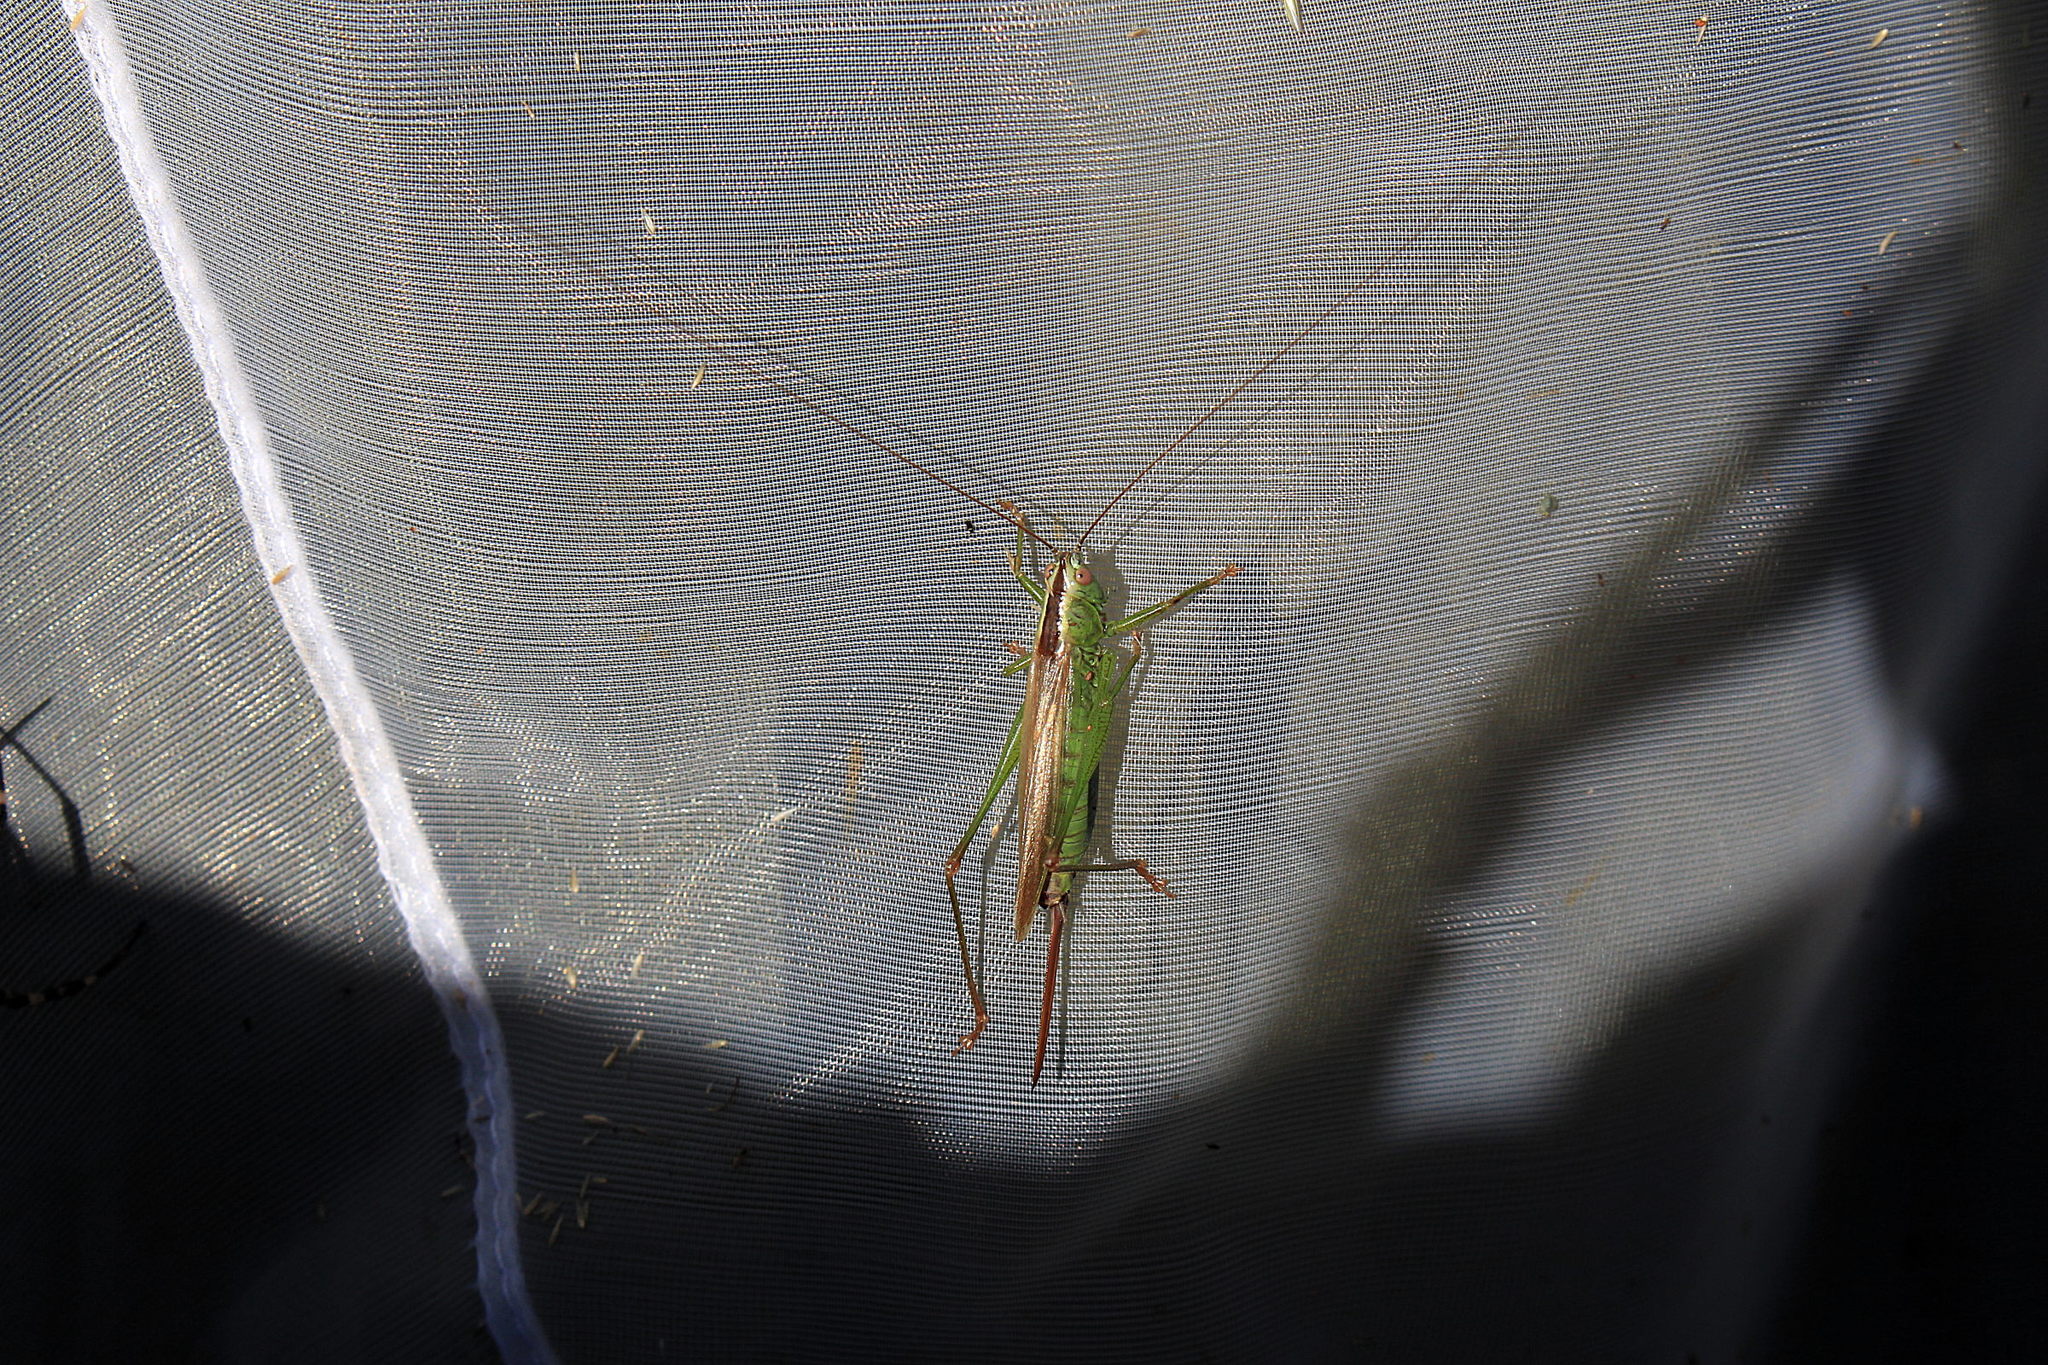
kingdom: Animalia
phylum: Arthropoda
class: Insecta
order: Orthoptera
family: Tettigoniidae
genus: Conocephalus
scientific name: Conocephalus fuscus
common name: Long-winged conehead
